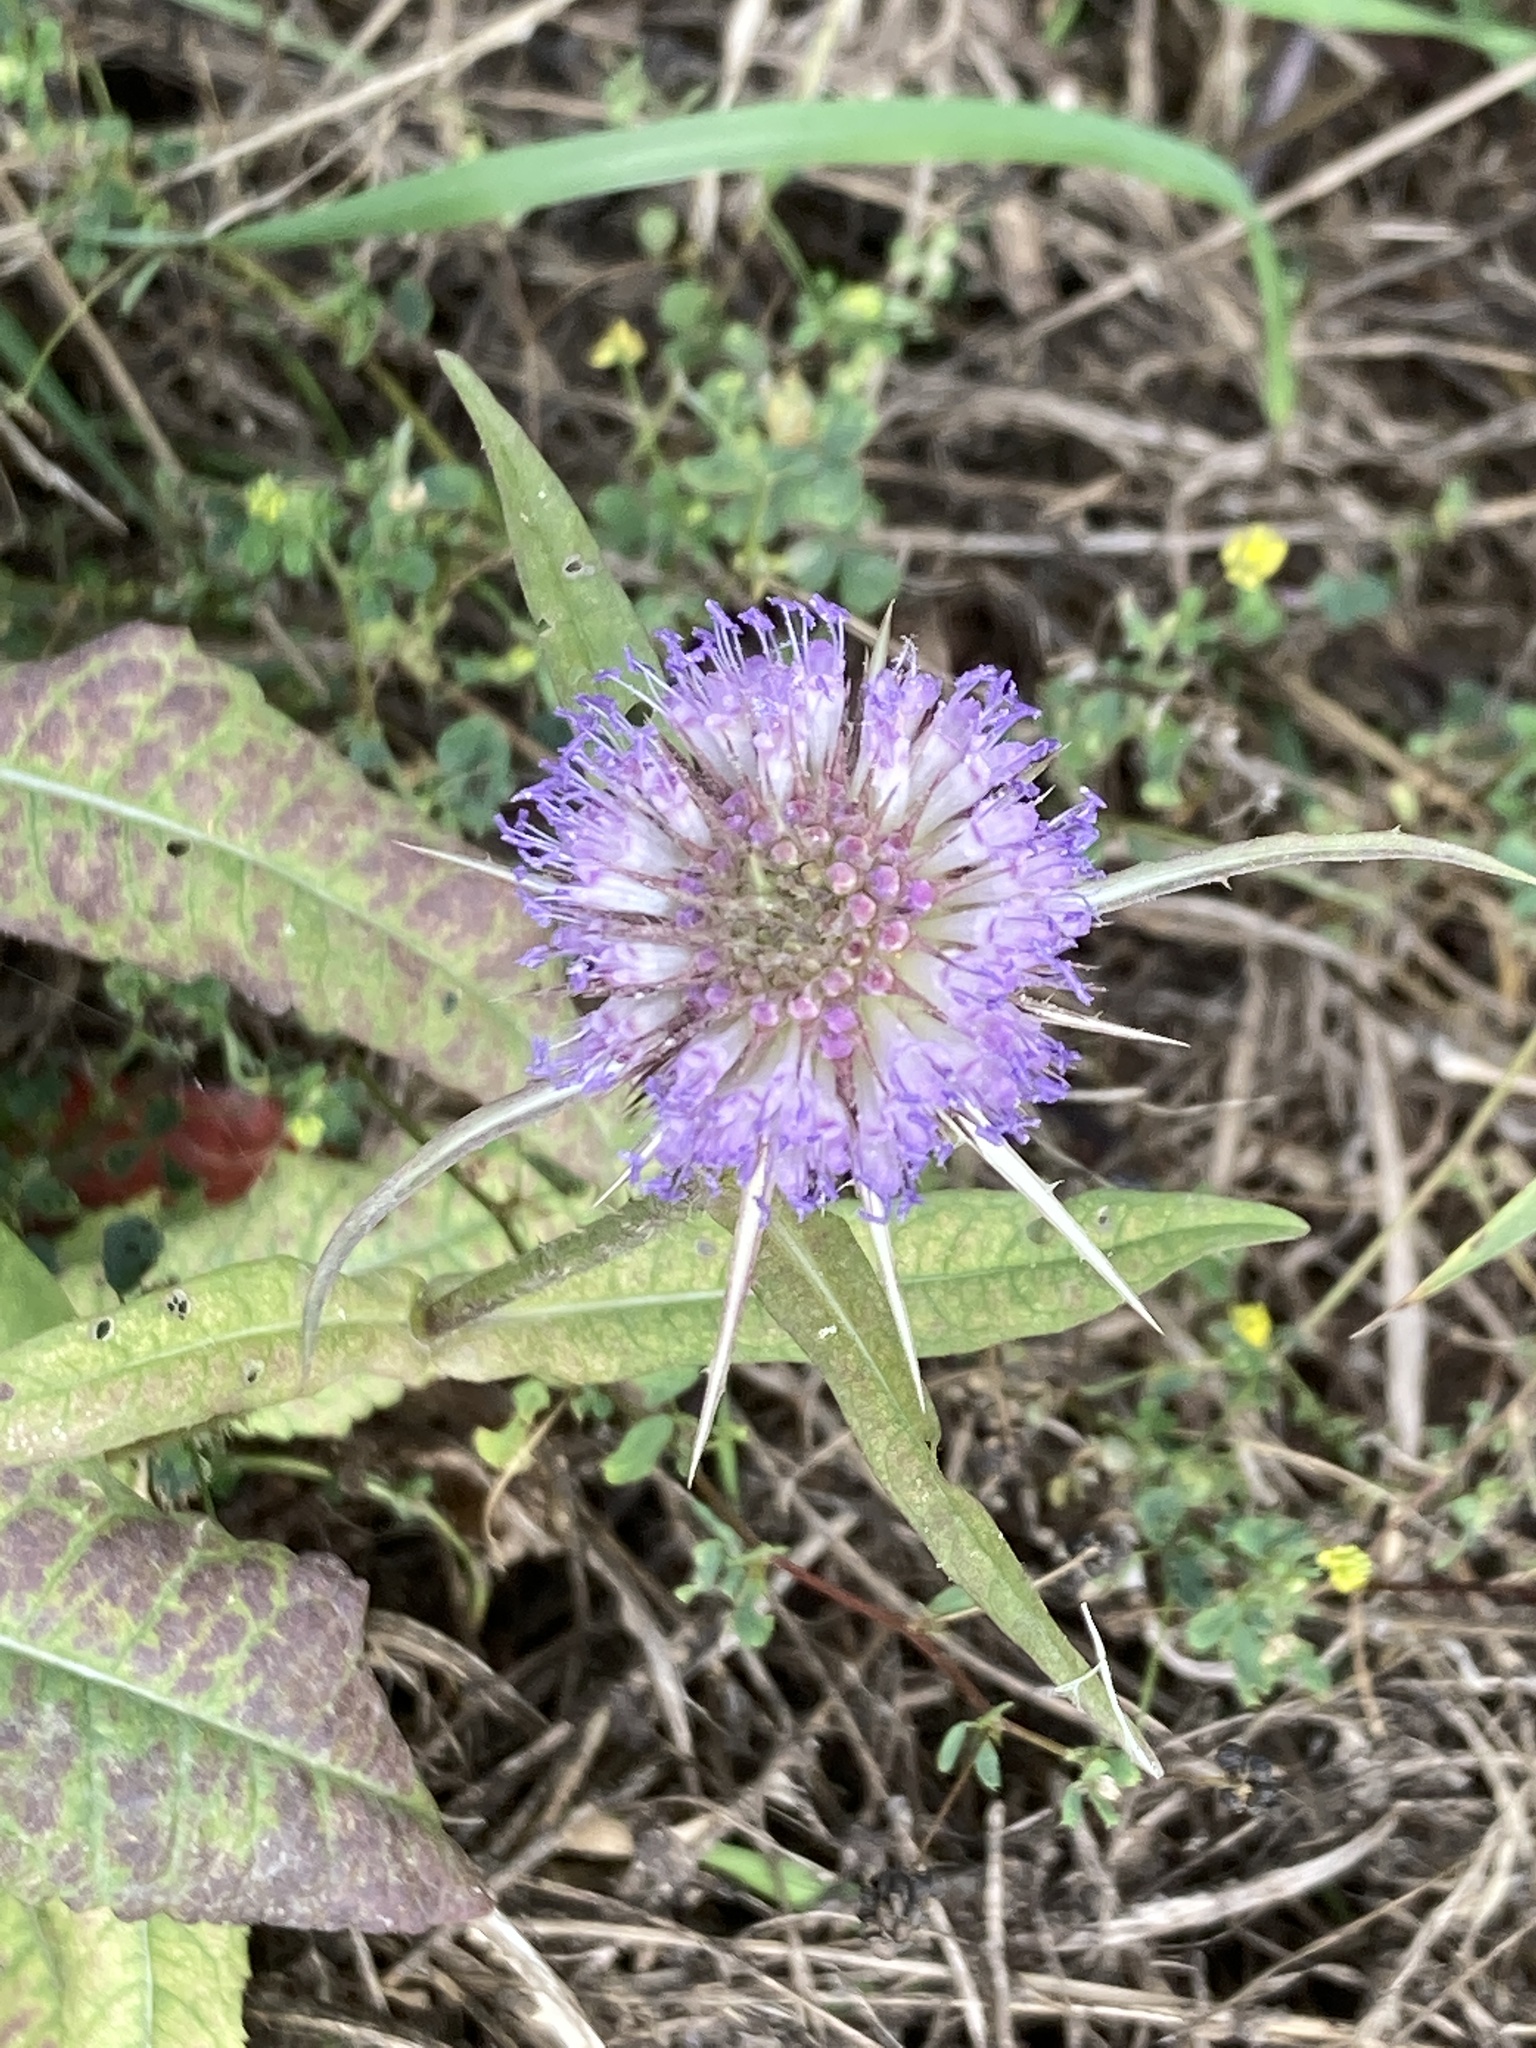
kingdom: Plantae
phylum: Tracheophyta
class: Magnoliopsida
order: Dipsacales
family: Caprifoliaceae
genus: Dipsacus
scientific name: Dipsacus fullonum
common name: Teasel
